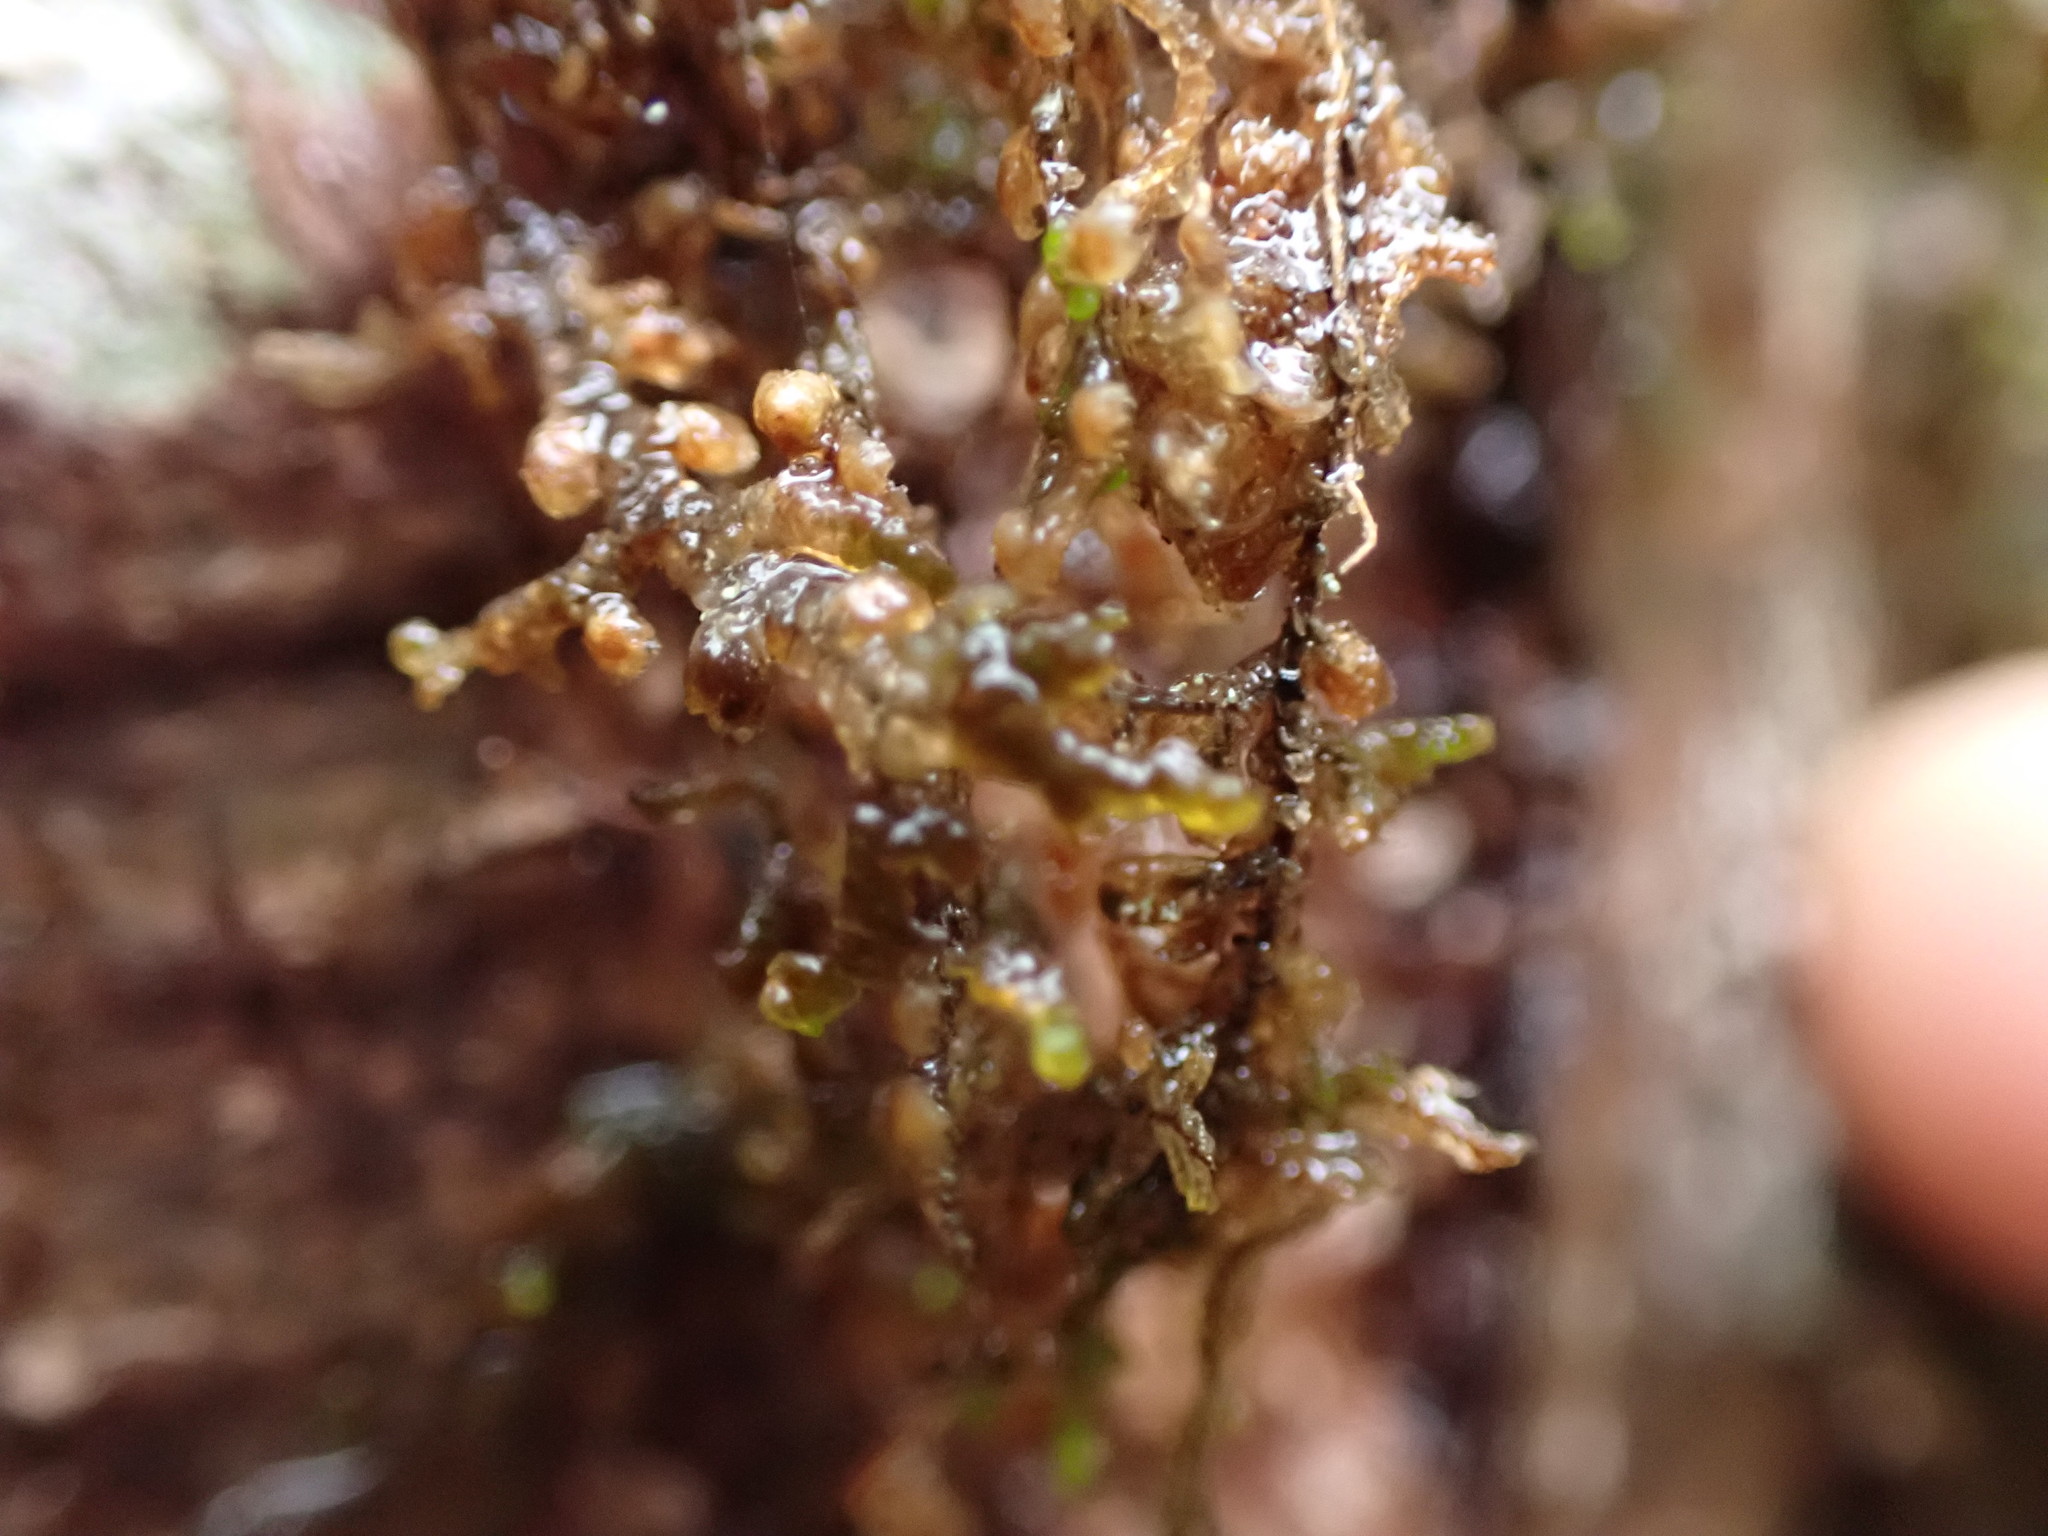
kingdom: Plantae
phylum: Marchantiophyta
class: Jungermanniopsida
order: Porellales
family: Frullaniaceae
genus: Frullania
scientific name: Frullania nisquallensis
